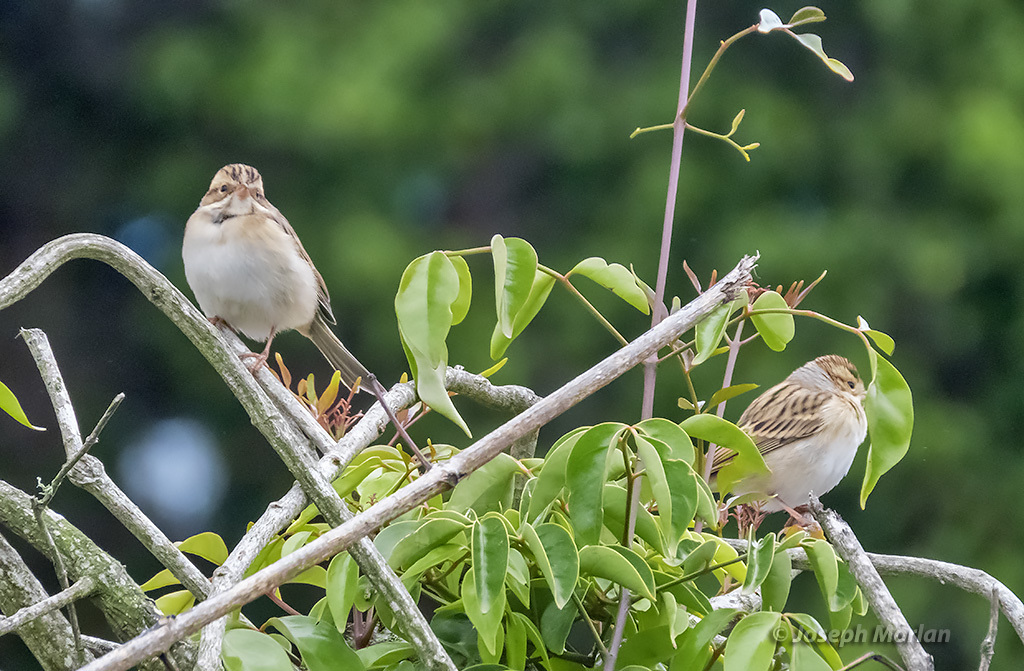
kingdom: Animalia
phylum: Chordata
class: Aves
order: Passeriformes
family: Passerellidae
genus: Spizella
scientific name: Spizella pallida
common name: Clay-colored sparrow
